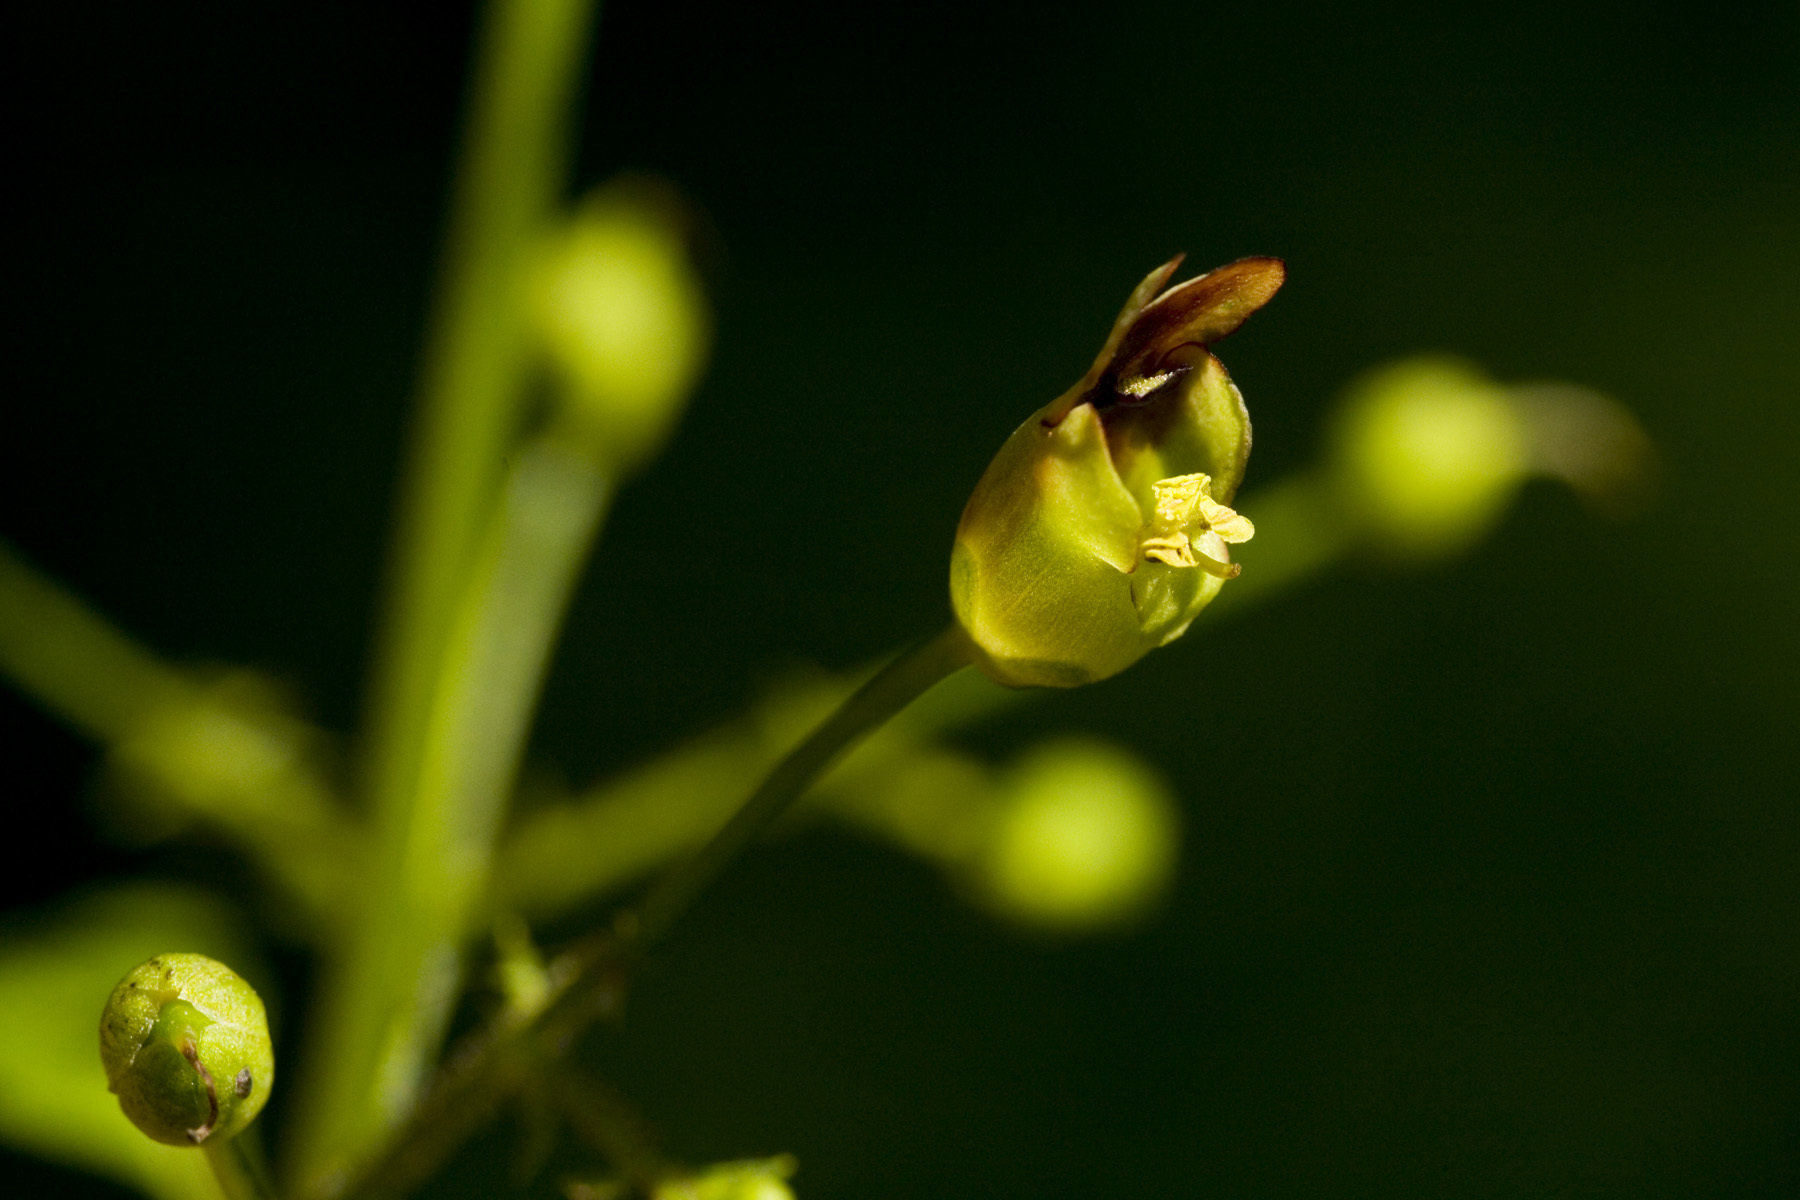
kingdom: Plantae
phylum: Tracheophyta
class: Magnoliopsida
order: Lamiales
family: Scrophulariaceae
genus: Scrophularia
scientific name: Scrophularia marilandica
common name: Eastern figwort
